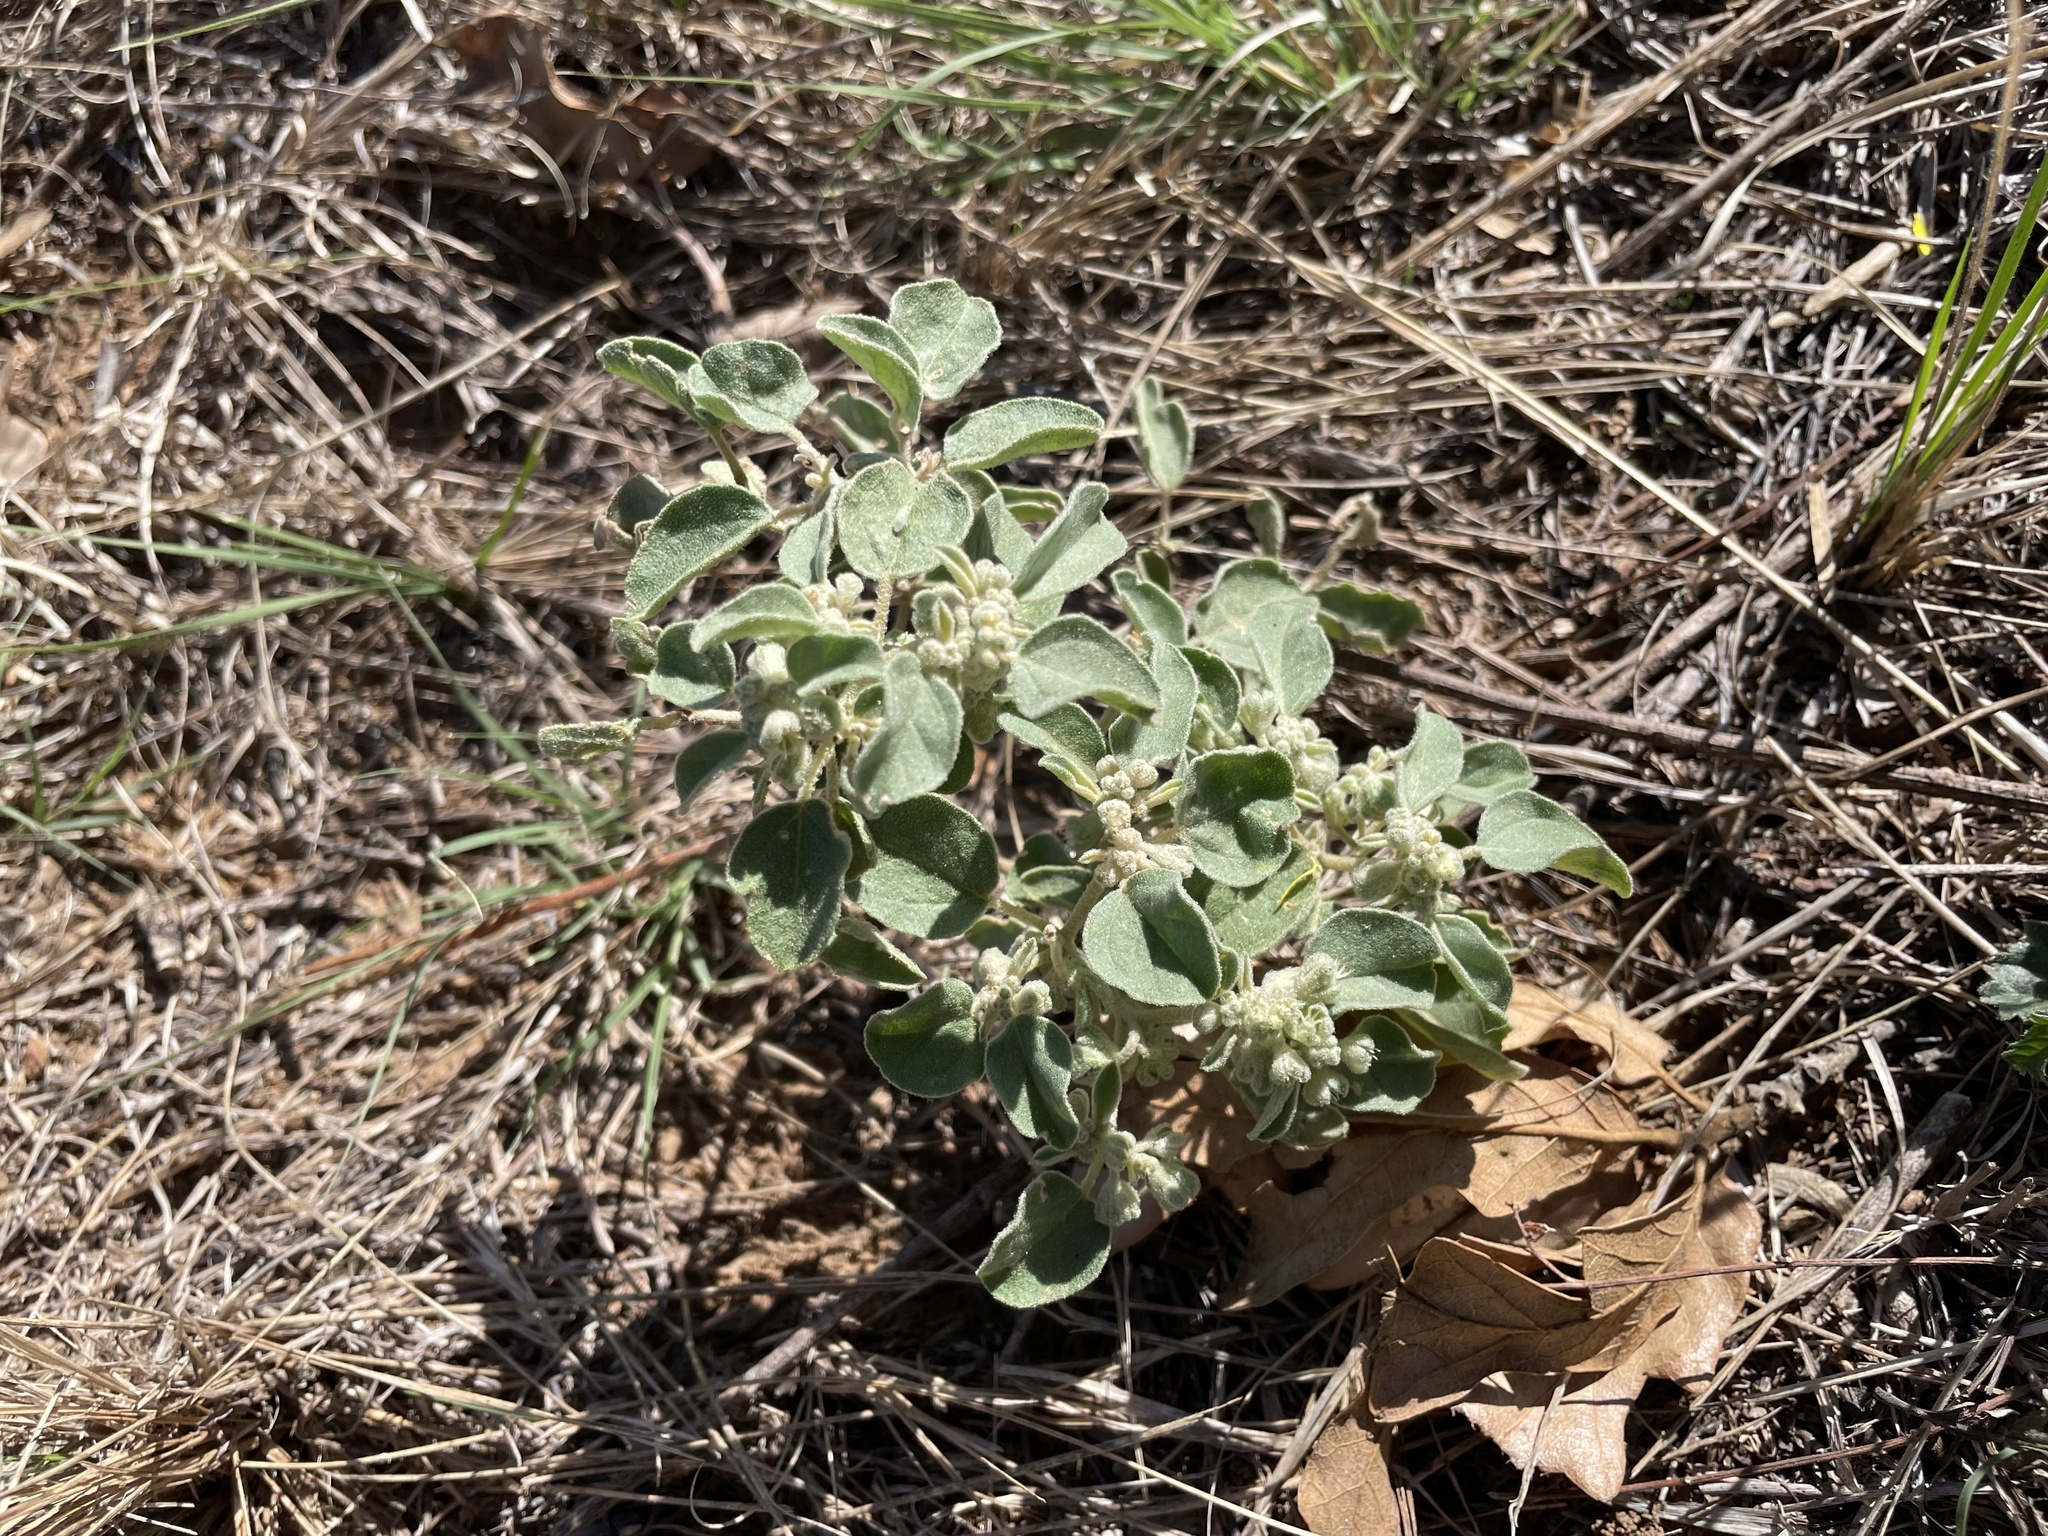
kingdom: Plantae
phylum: Tracheophyta
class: Magnoliopsida
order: Malpighiales
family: Euphorbiaceae
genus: Croton
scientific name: Croton pottsii
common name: Leatherweed
